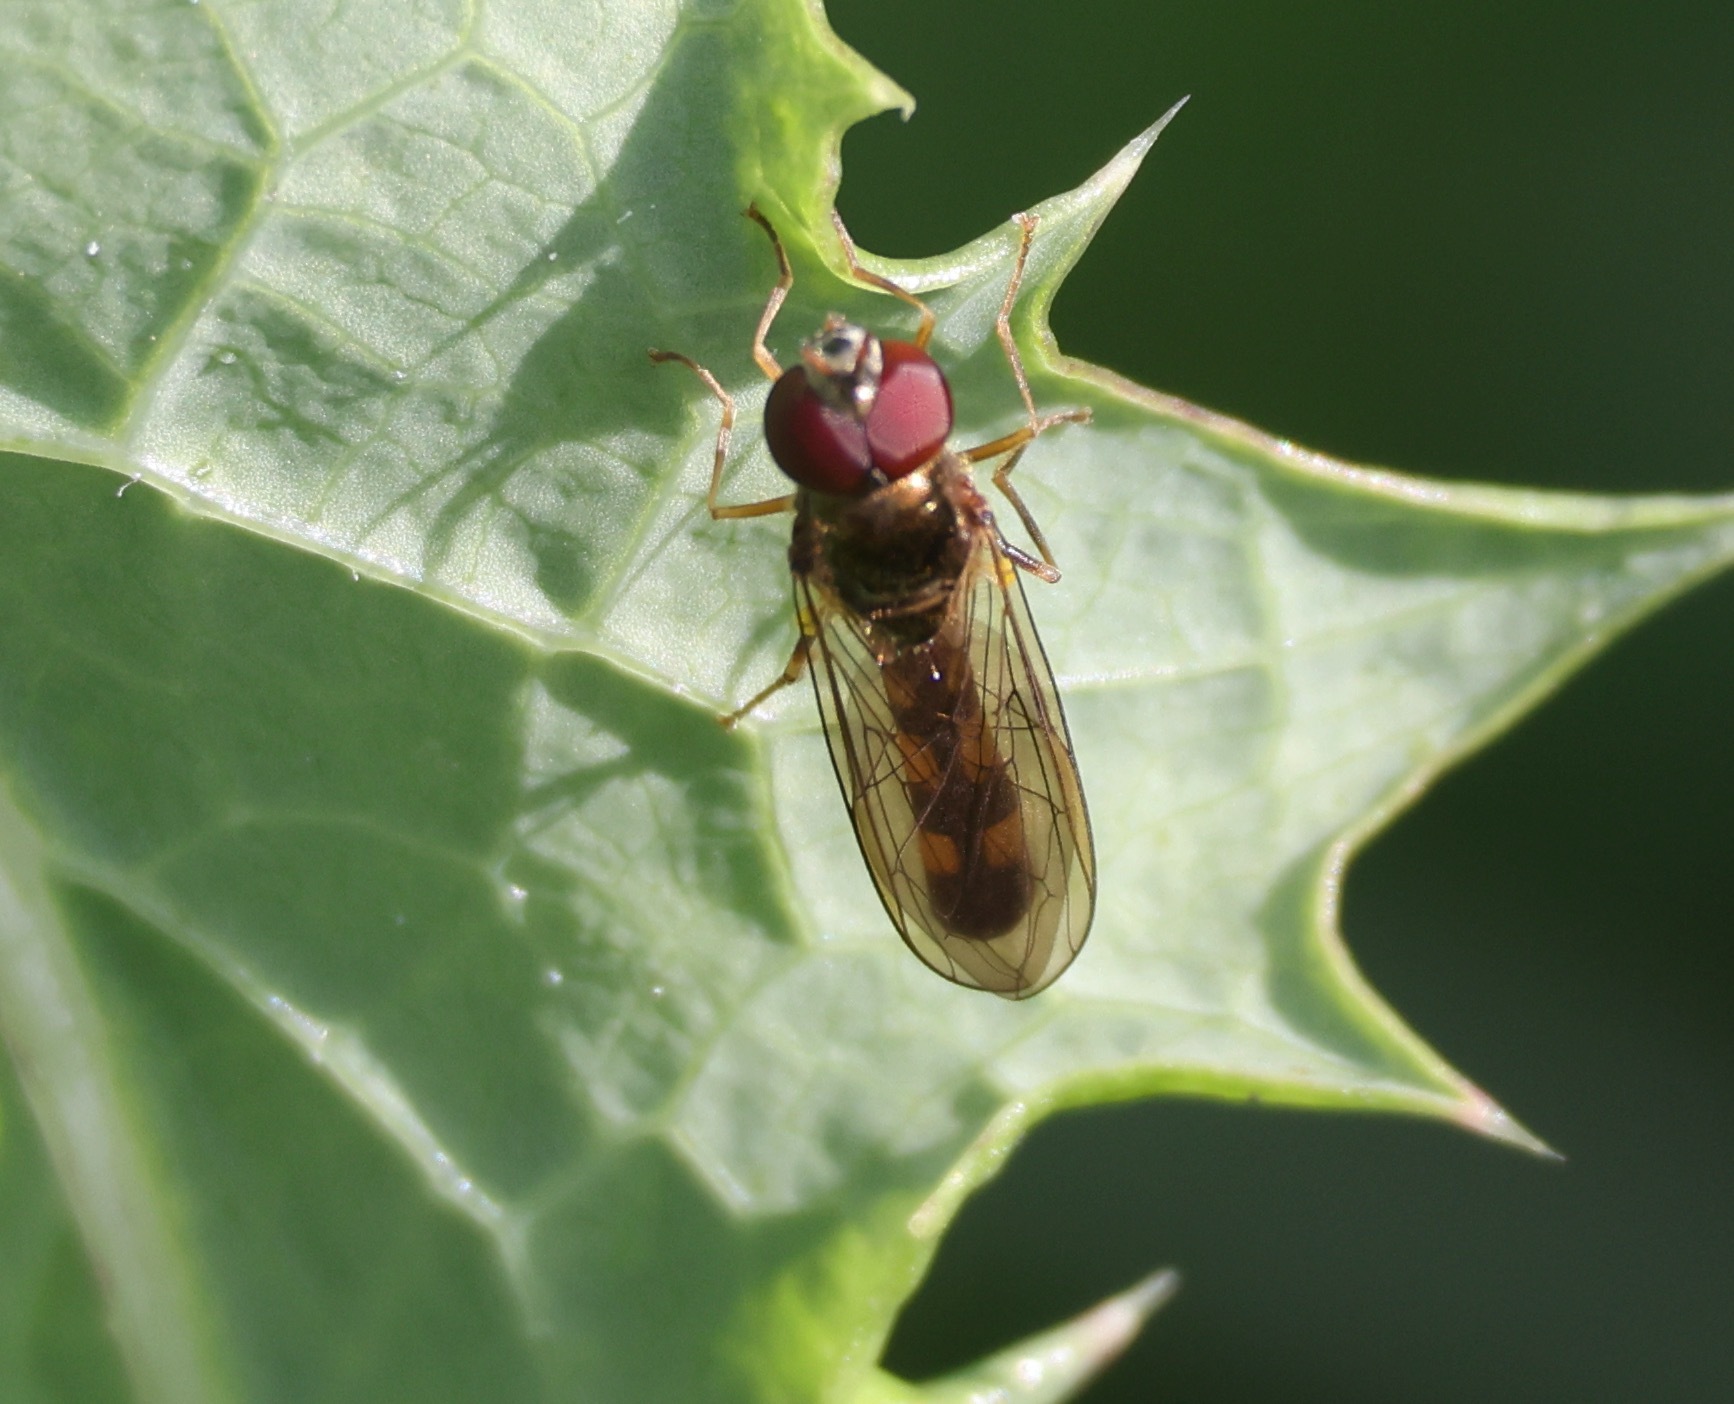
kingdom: Animalia
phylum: Arthropoda
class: Insecta
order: Diptera
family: Syrphidae
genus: Melanostoma
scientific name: Melanostoma scalare
